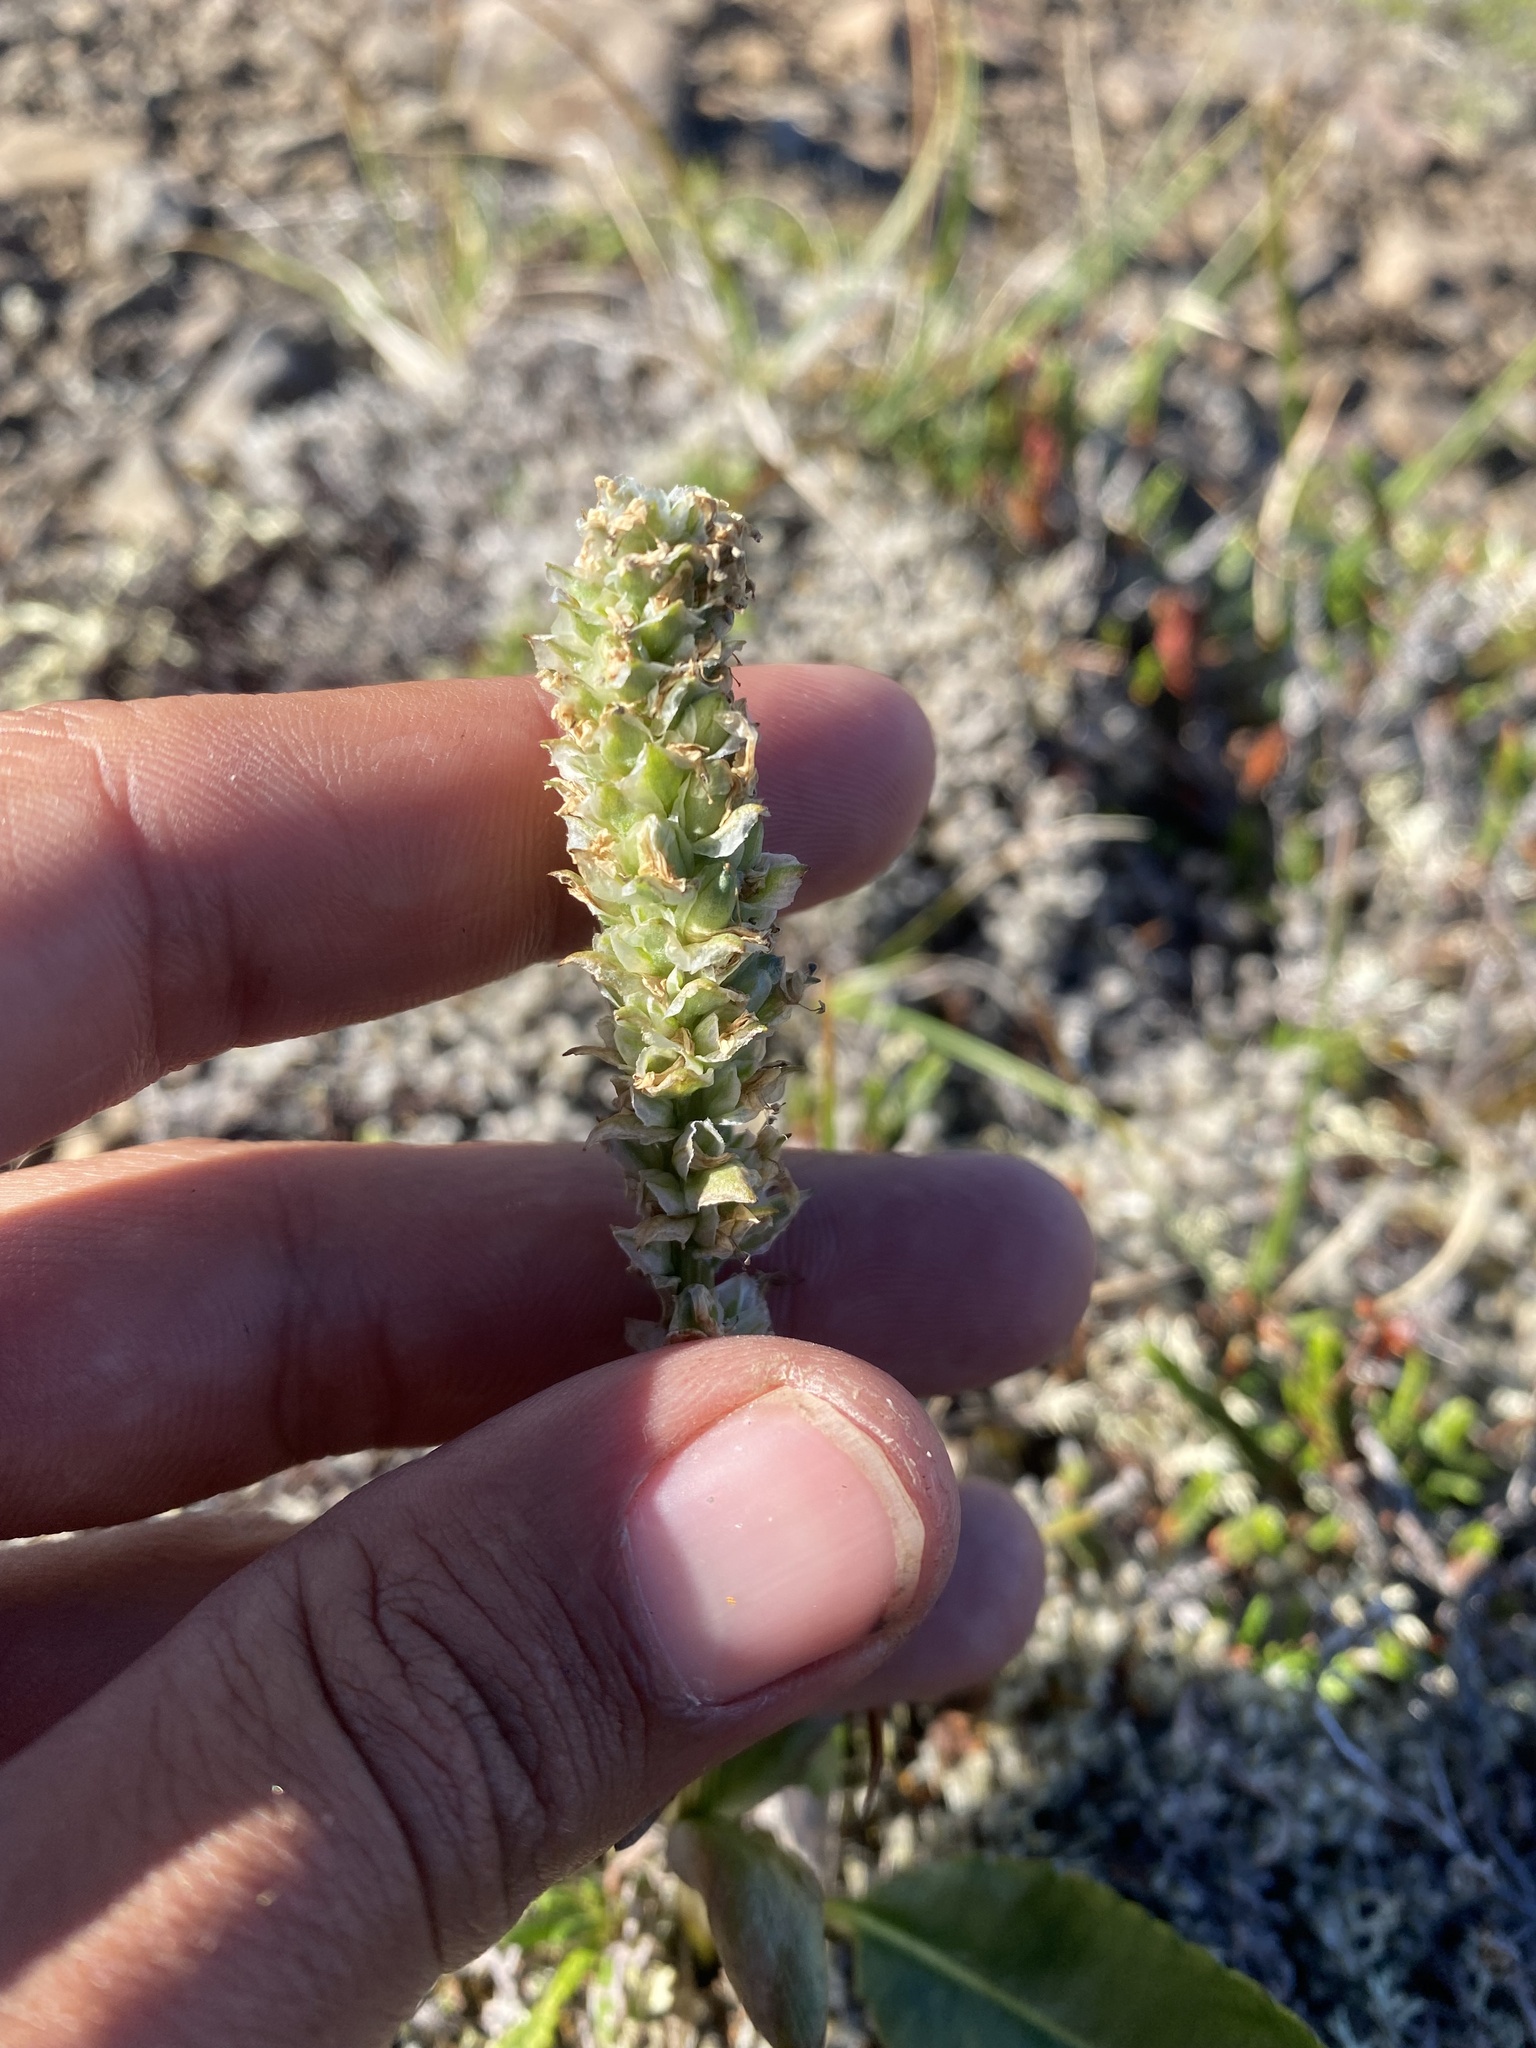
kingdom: Plantae
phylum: Tracheophyta
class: Magnoliopsida
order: Lamiales
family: Plantaginaceae
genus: Lagotis
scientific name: Lagotis glauca
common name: Glaucous weaselsnout
